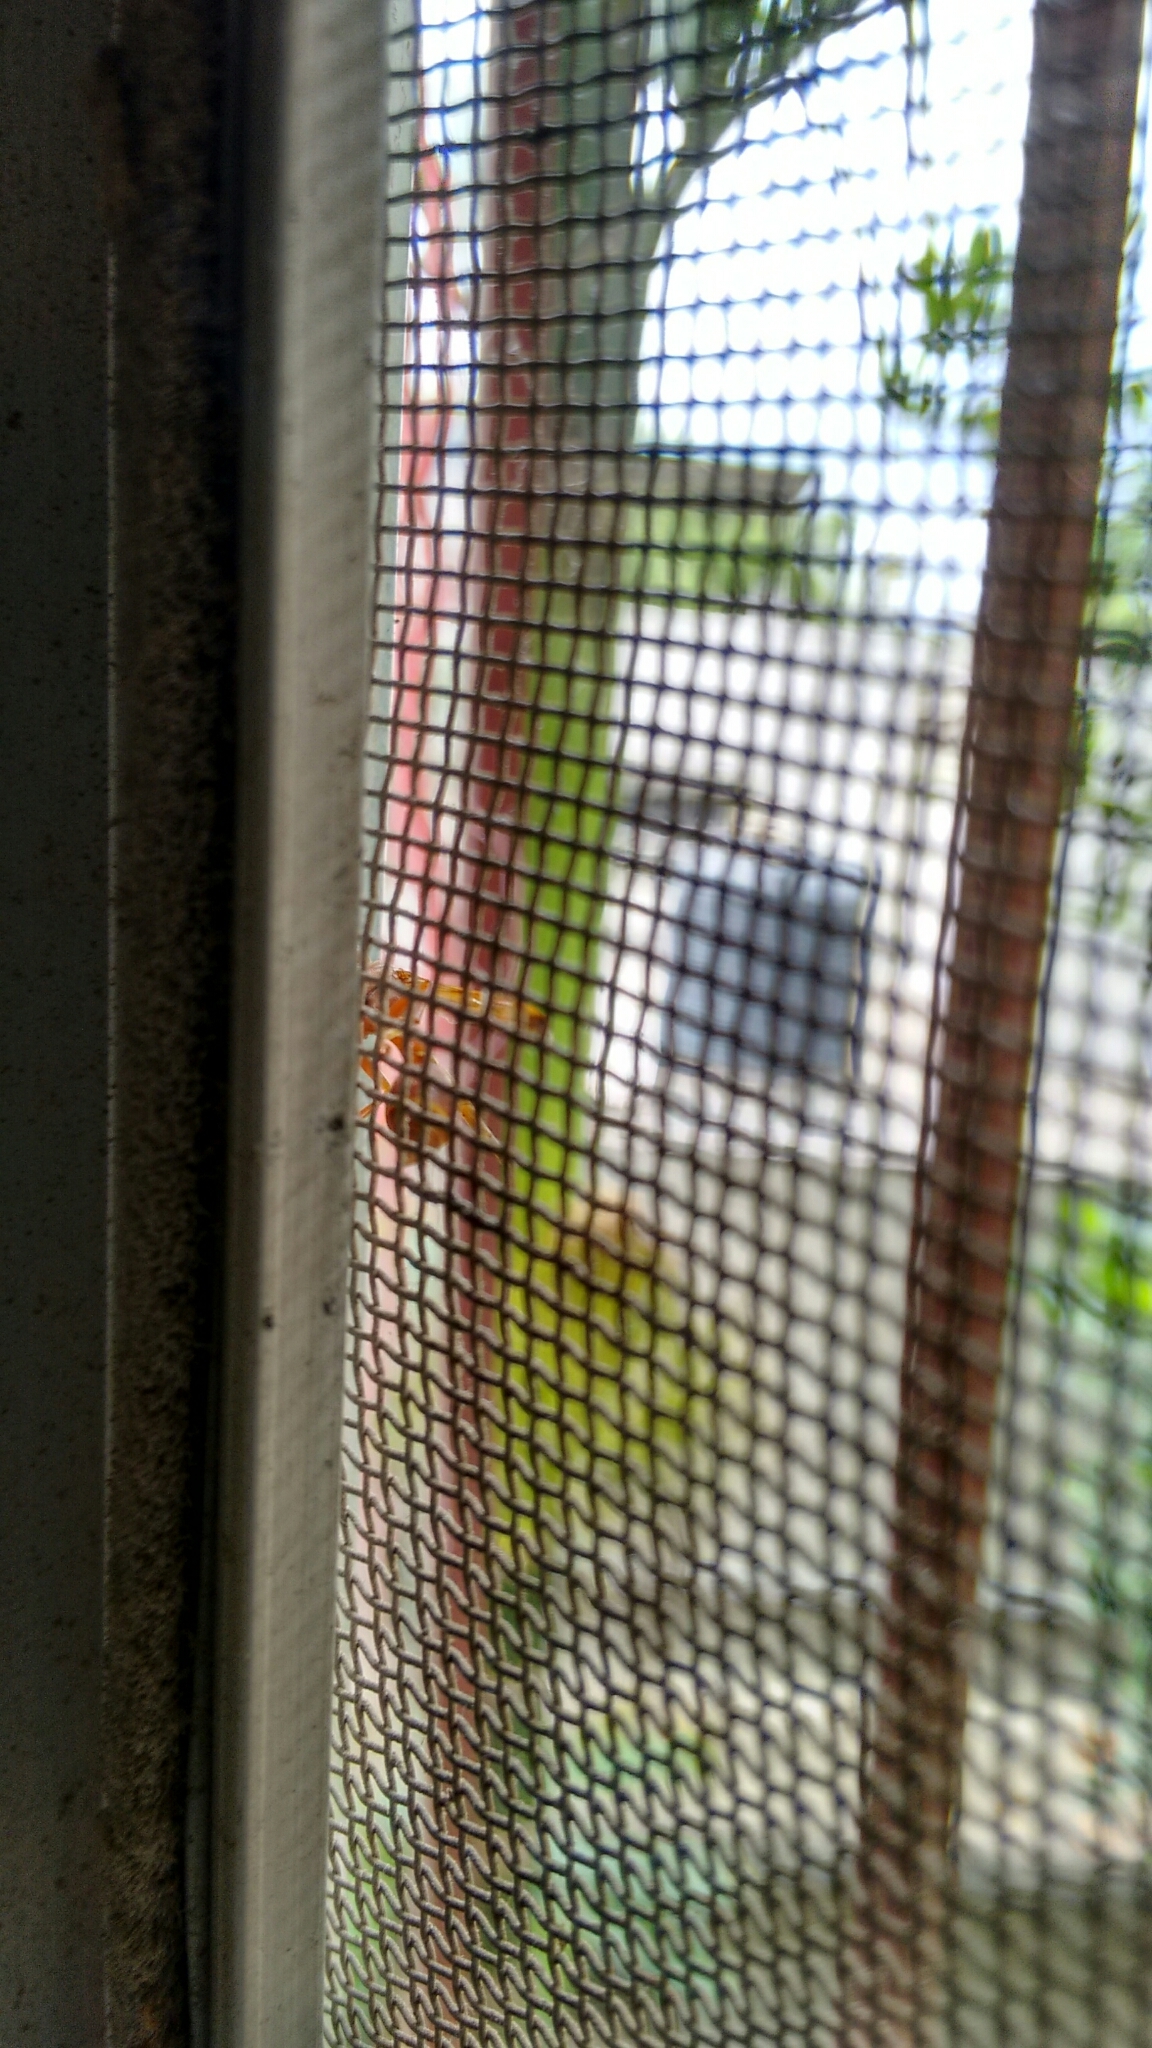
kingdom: Animalia
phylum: Arthropoda
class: Insecta
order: Hymenoptera
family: Vespidae
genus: Ropalidia
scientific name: Ropalidia marginata
